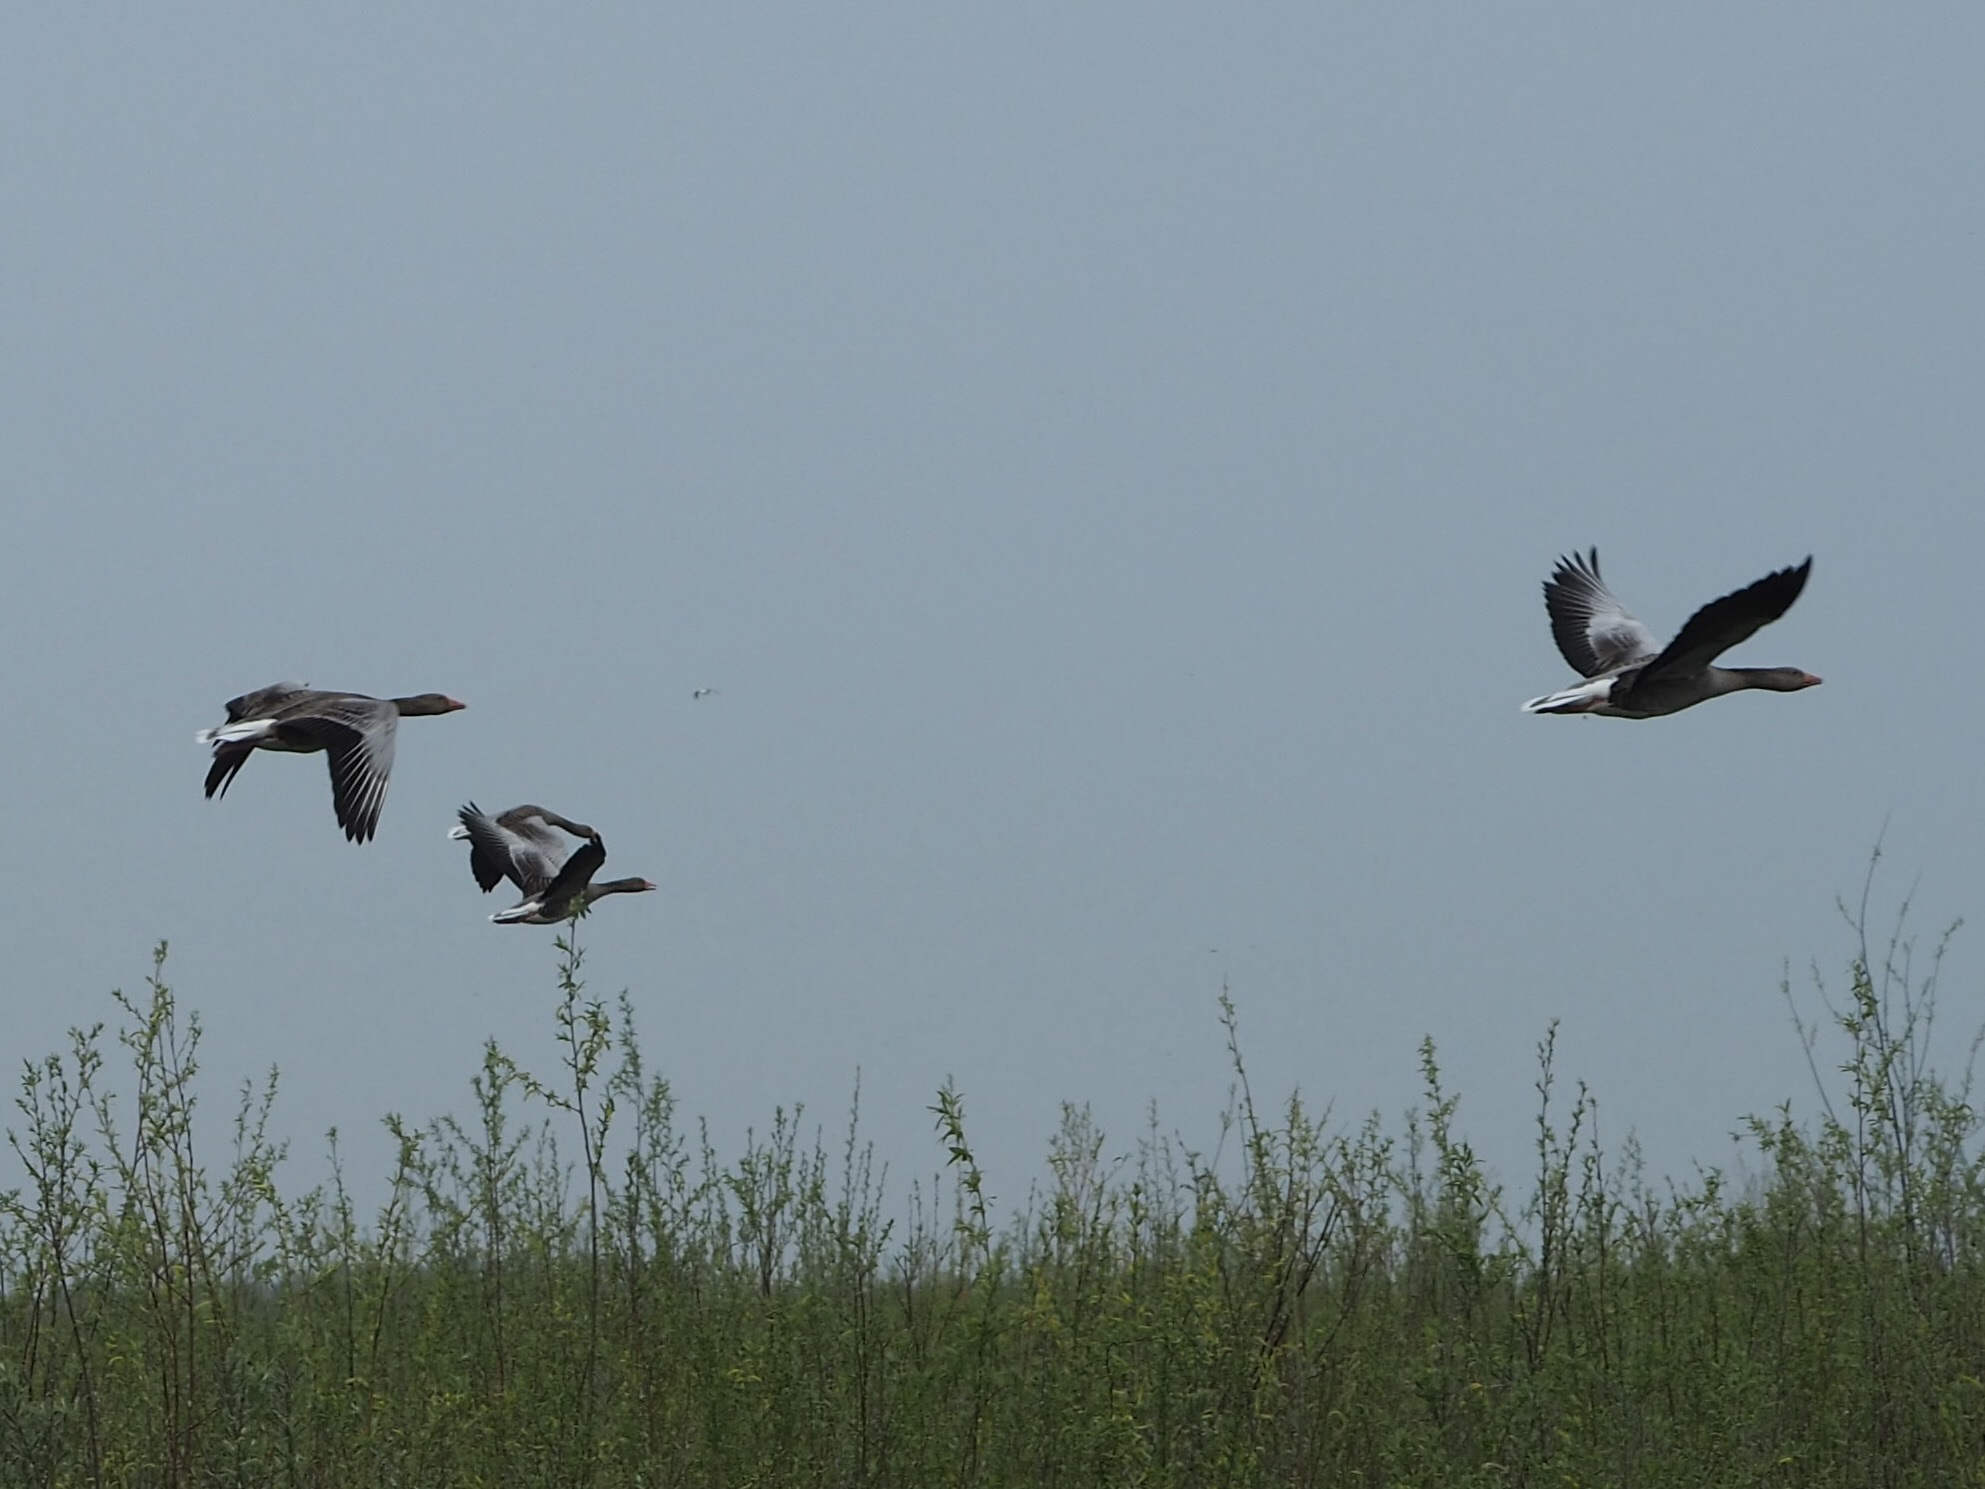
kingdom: Animalia
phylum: Chordata
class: Aves
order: Anseriformes
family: Anatidae
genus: Anser
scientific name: Anser anser
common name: Greylag goose
